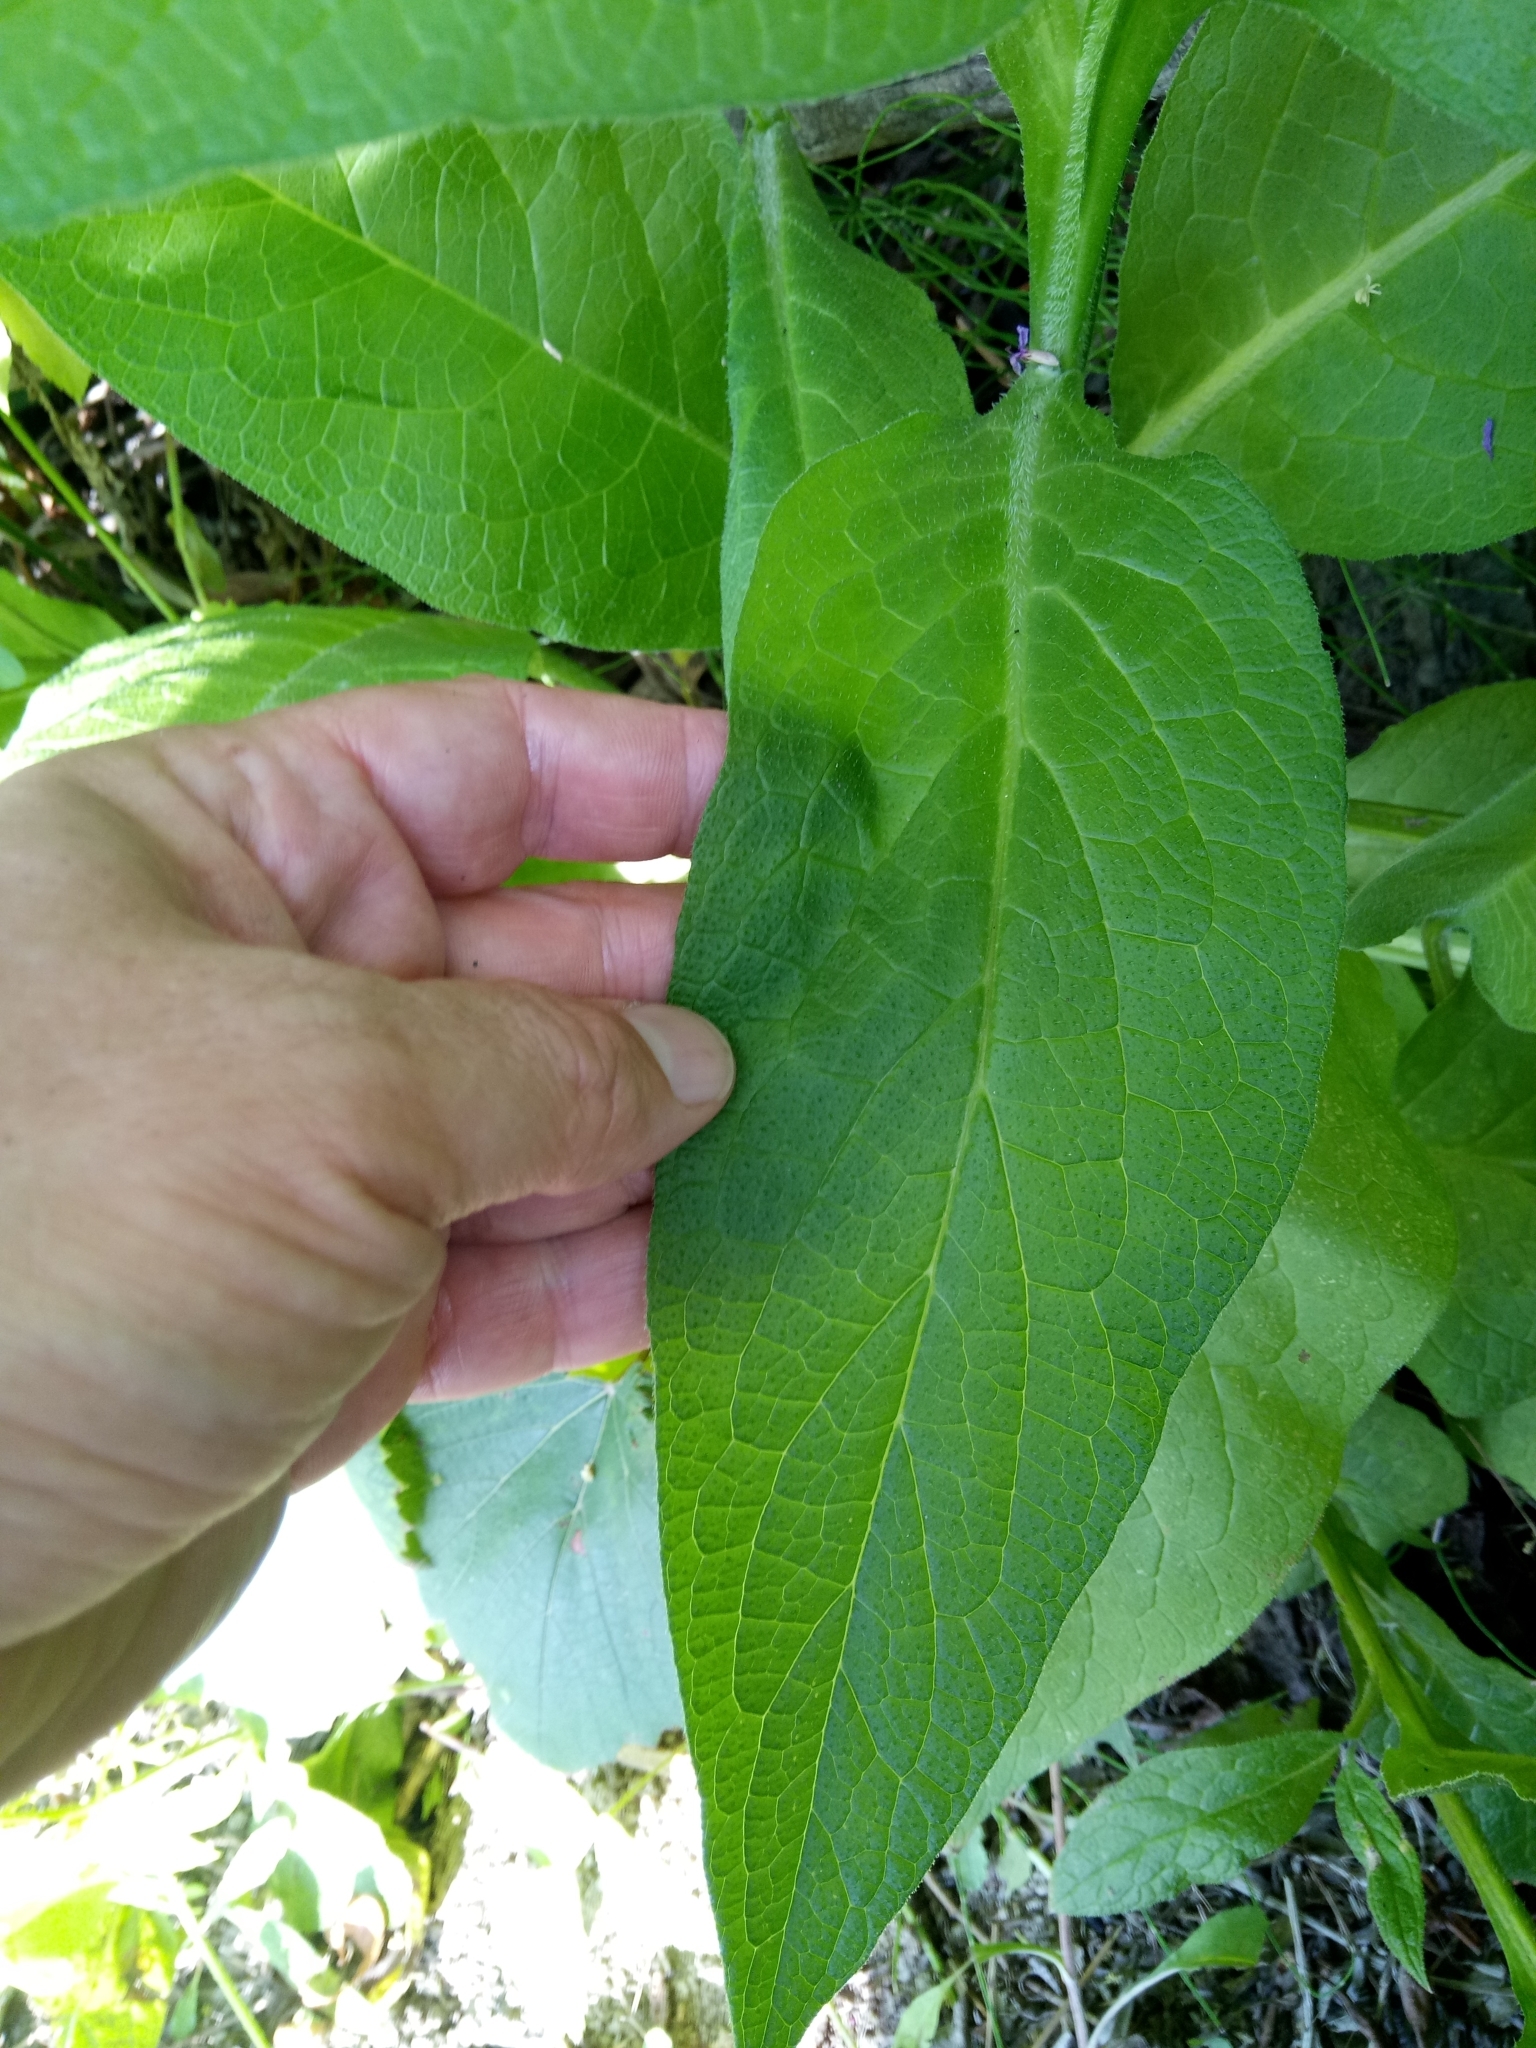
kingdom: Plantae
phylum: Tracheophyta
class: Magnoliopsida
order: Boraginales
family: Boraginaceae
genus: Symphytum
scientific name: Symphytum officinale
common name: Common comfrey
